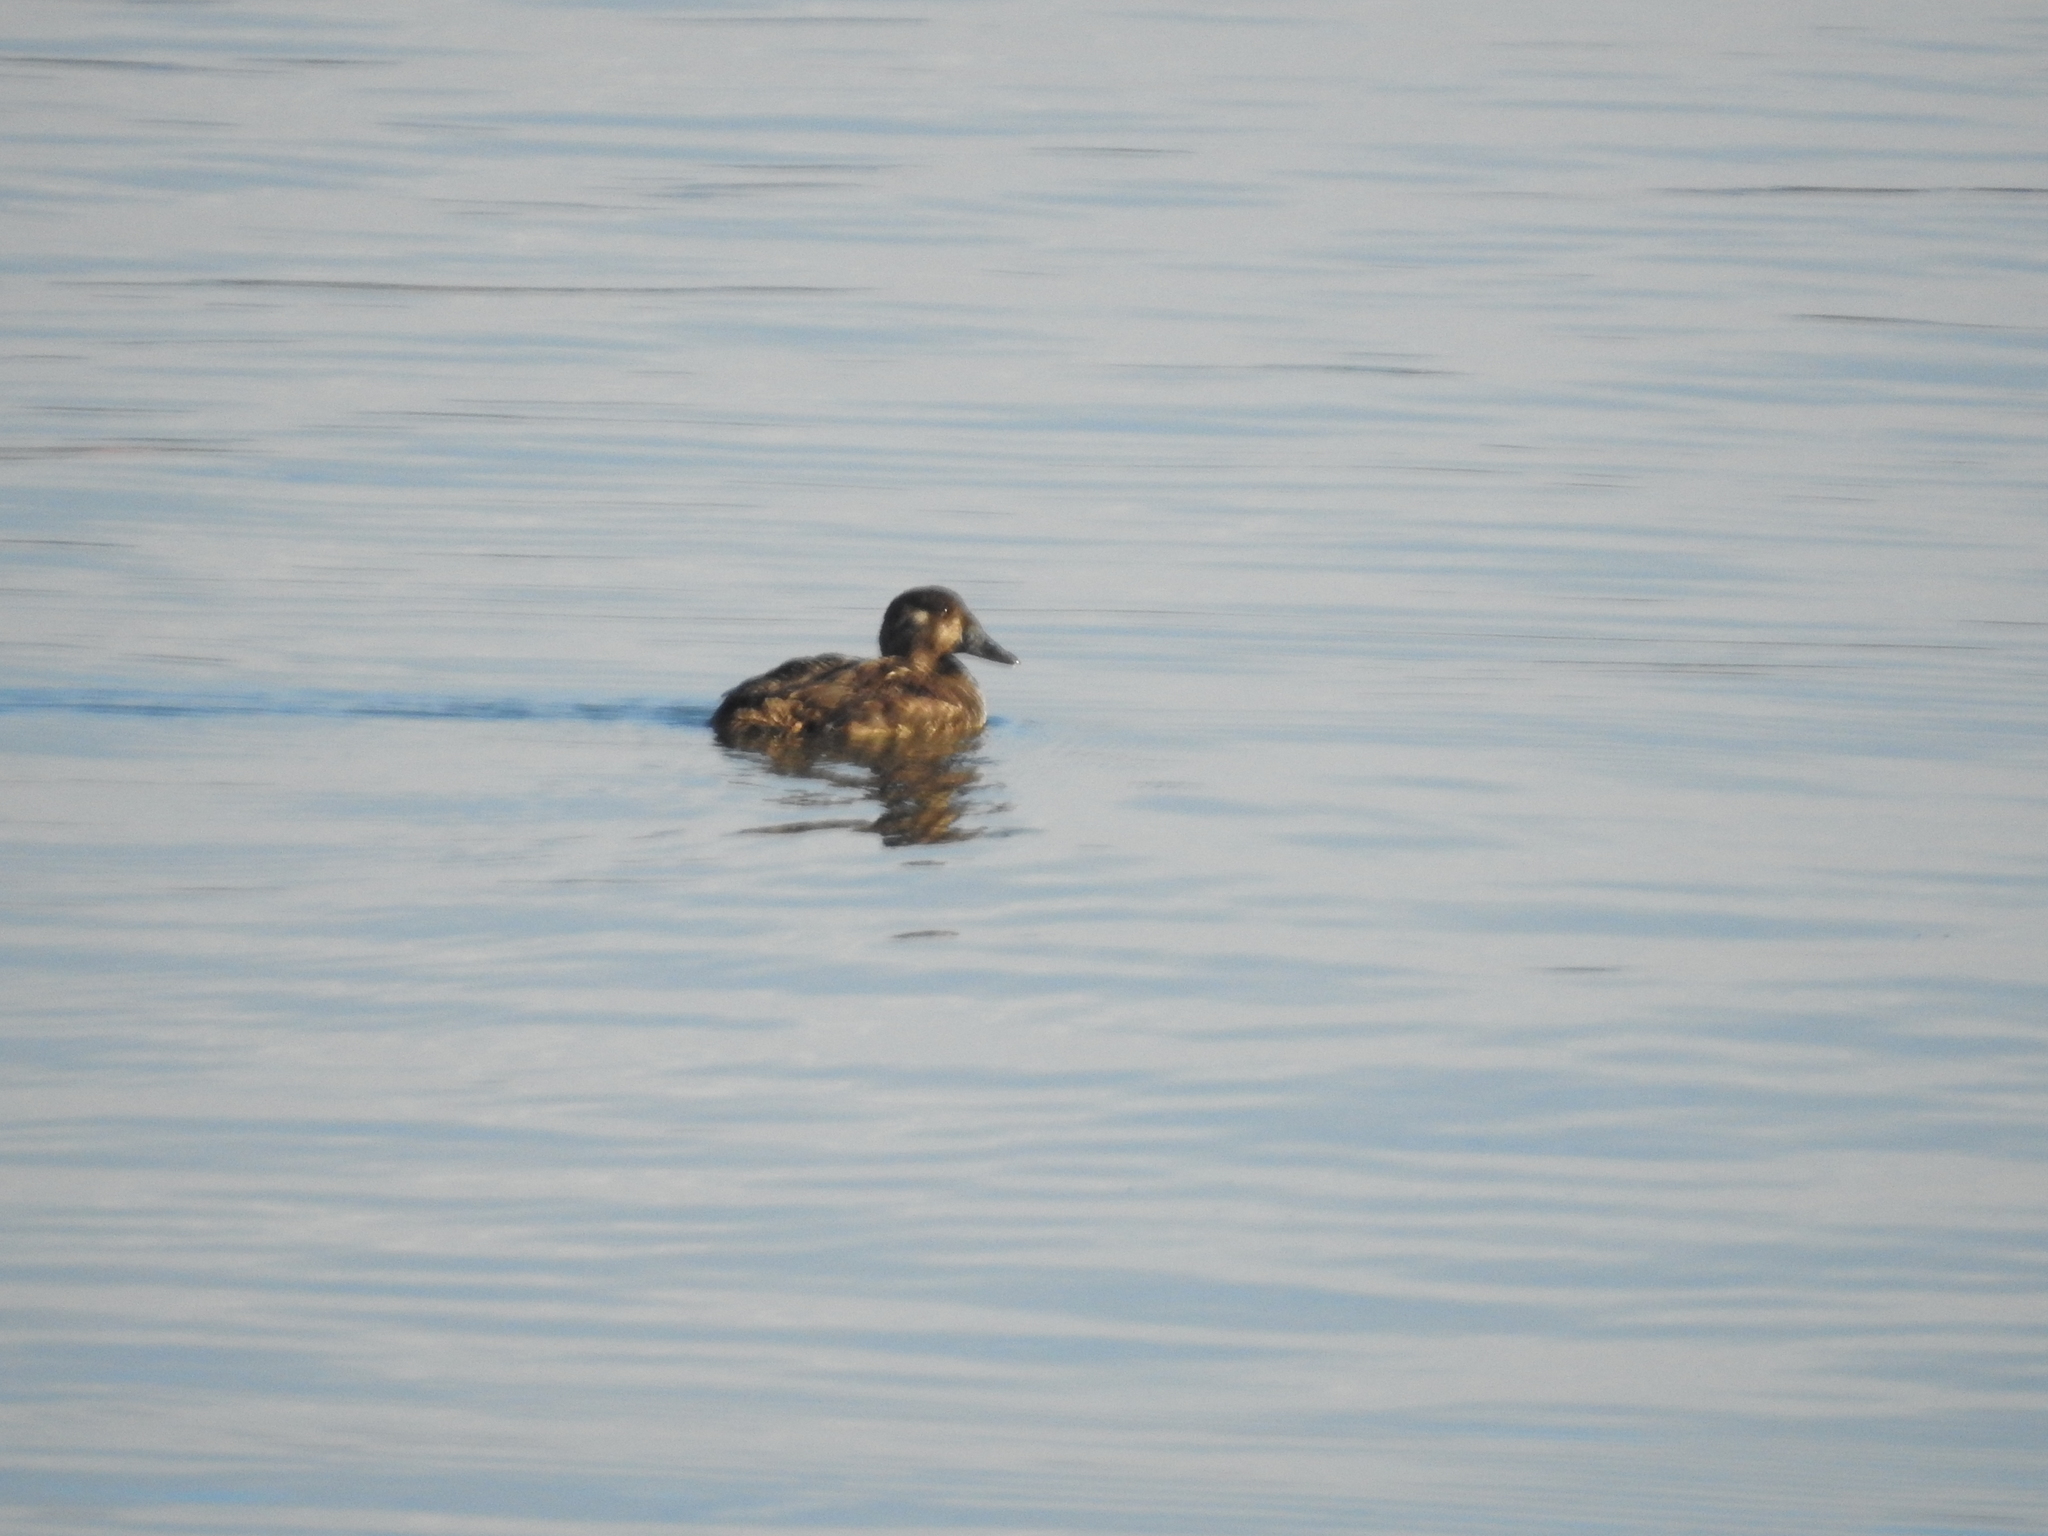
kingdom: Animalia
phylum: Chordata
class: Aves
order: Anseriformes
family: Anatidae
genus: Melanitta
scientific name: Melanitta perspicillata
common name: Surf scoter
